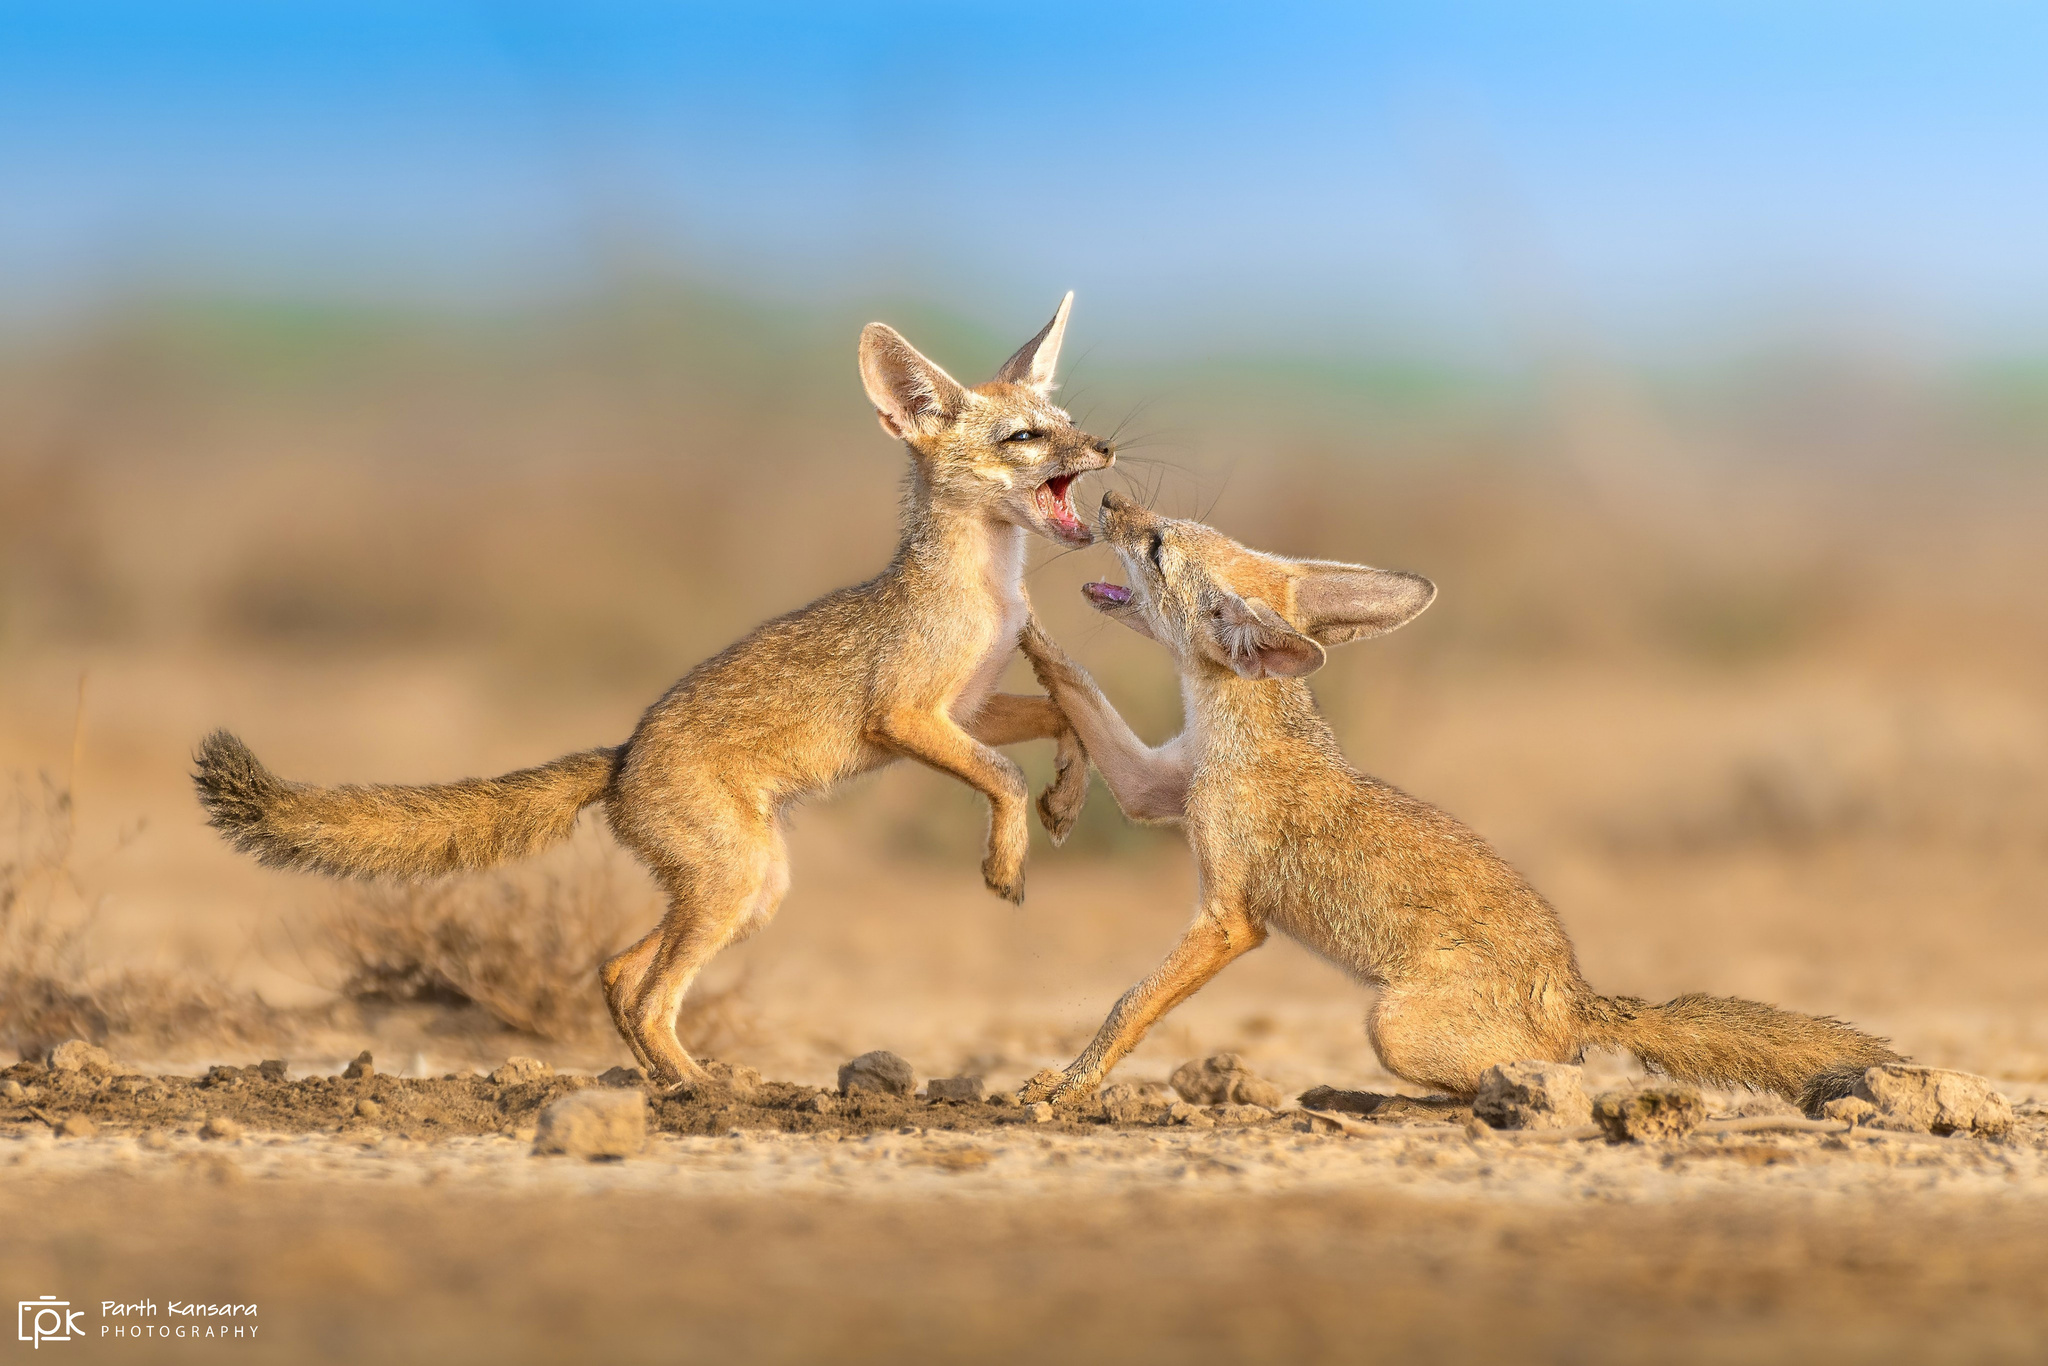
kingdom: Animalia
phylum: Chordata
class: Mammalia
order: Carnivora
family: Canidae
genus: Vulpes
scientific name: Vulpes bengalensis
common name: Bengal fox
